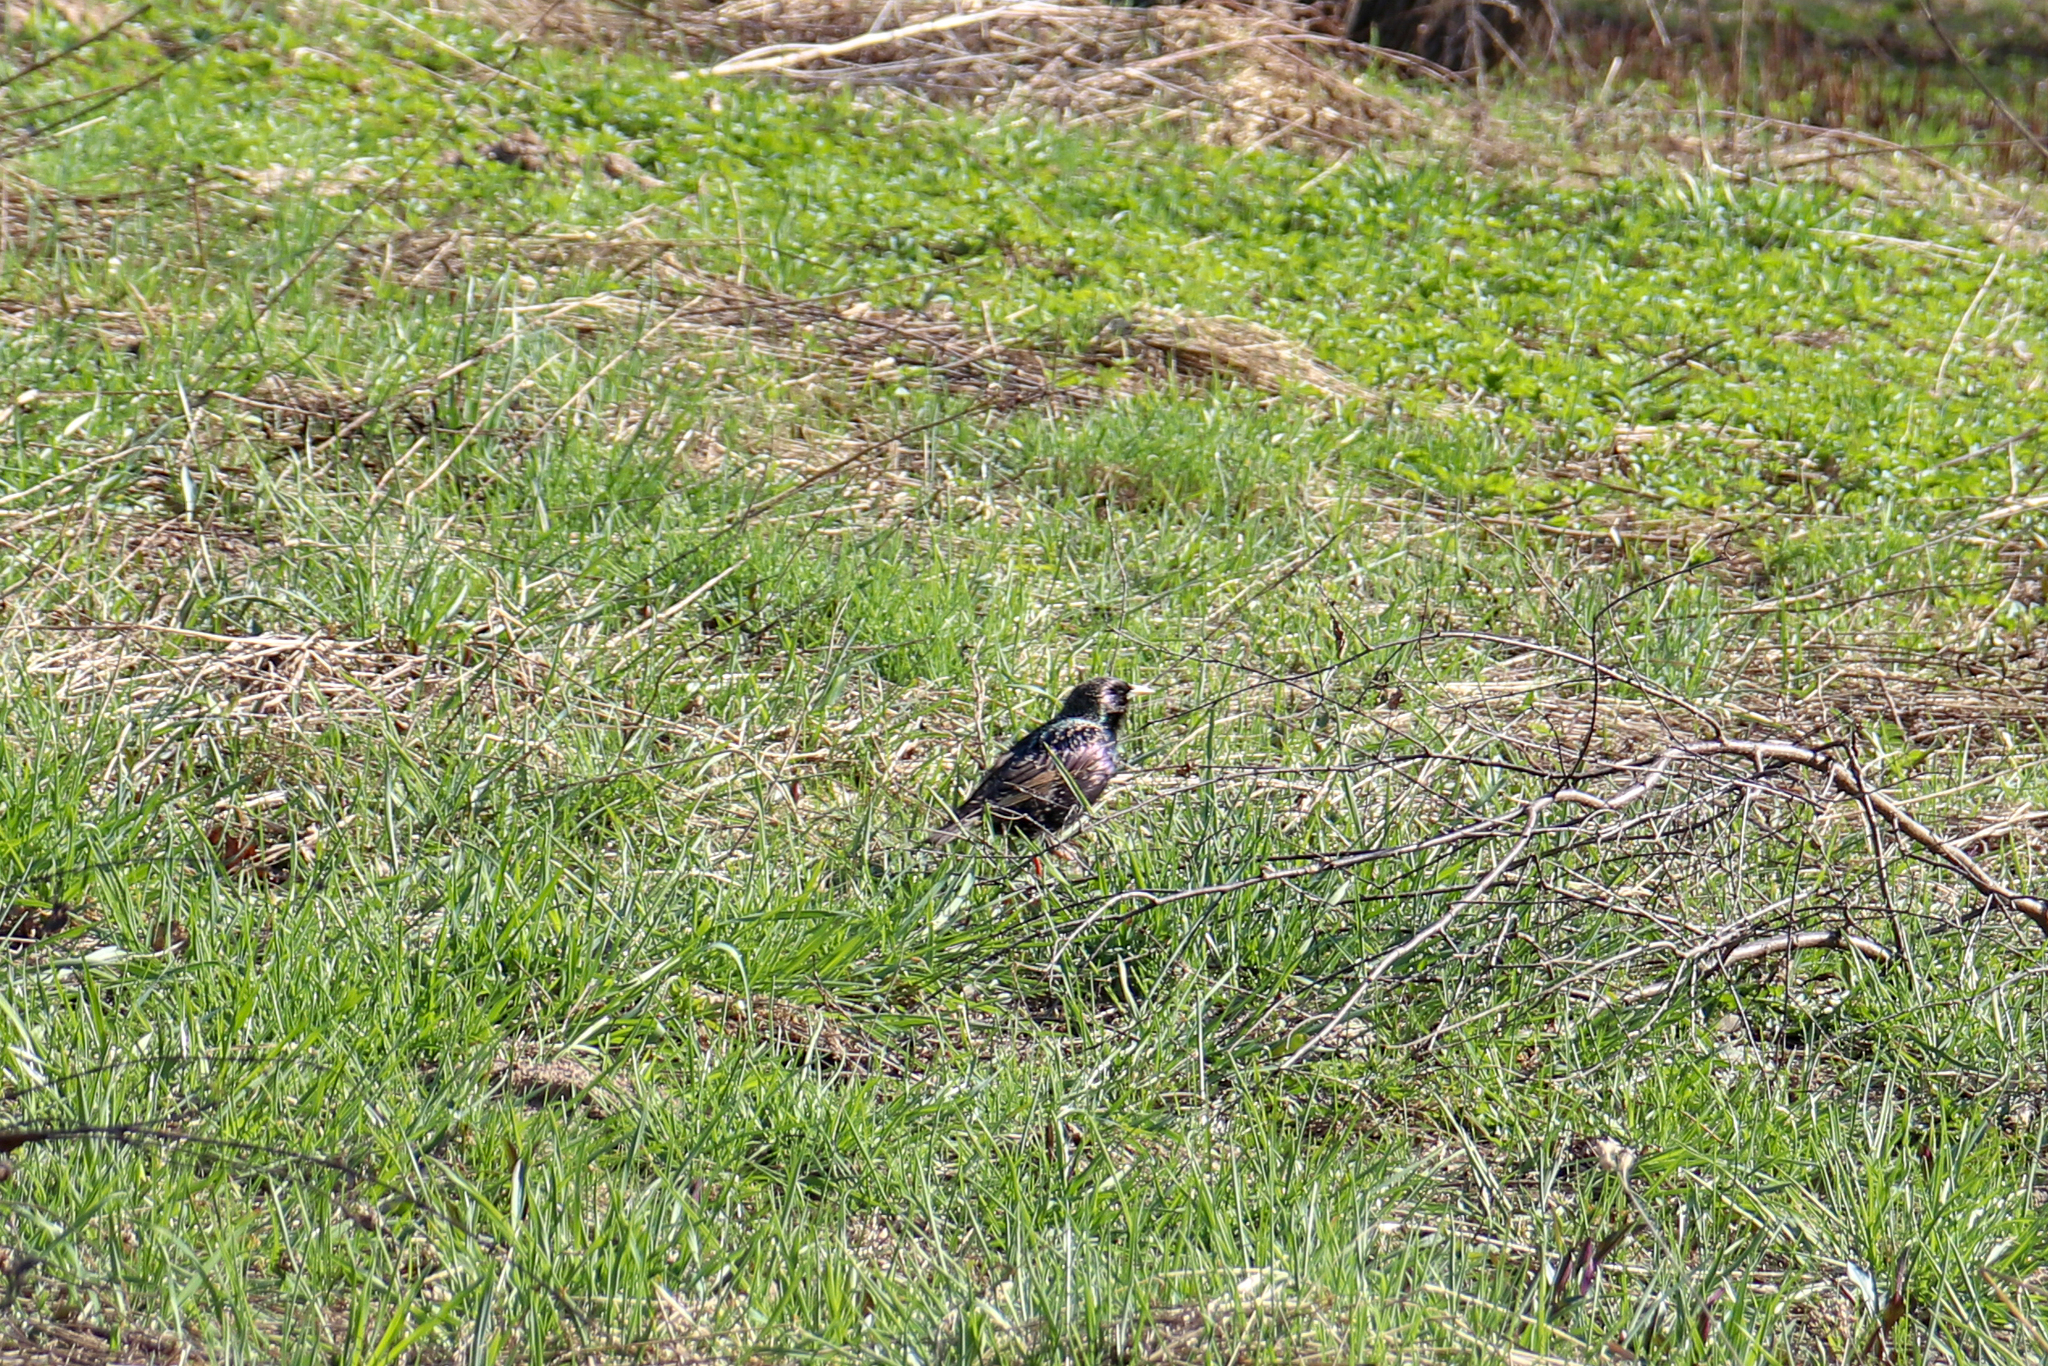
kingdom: Animalia
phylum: Chordata
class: Aves
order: Passeriformes
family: Sturnidae
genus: Sturnus
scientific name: Sturnus vulgaris
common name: Common starling
